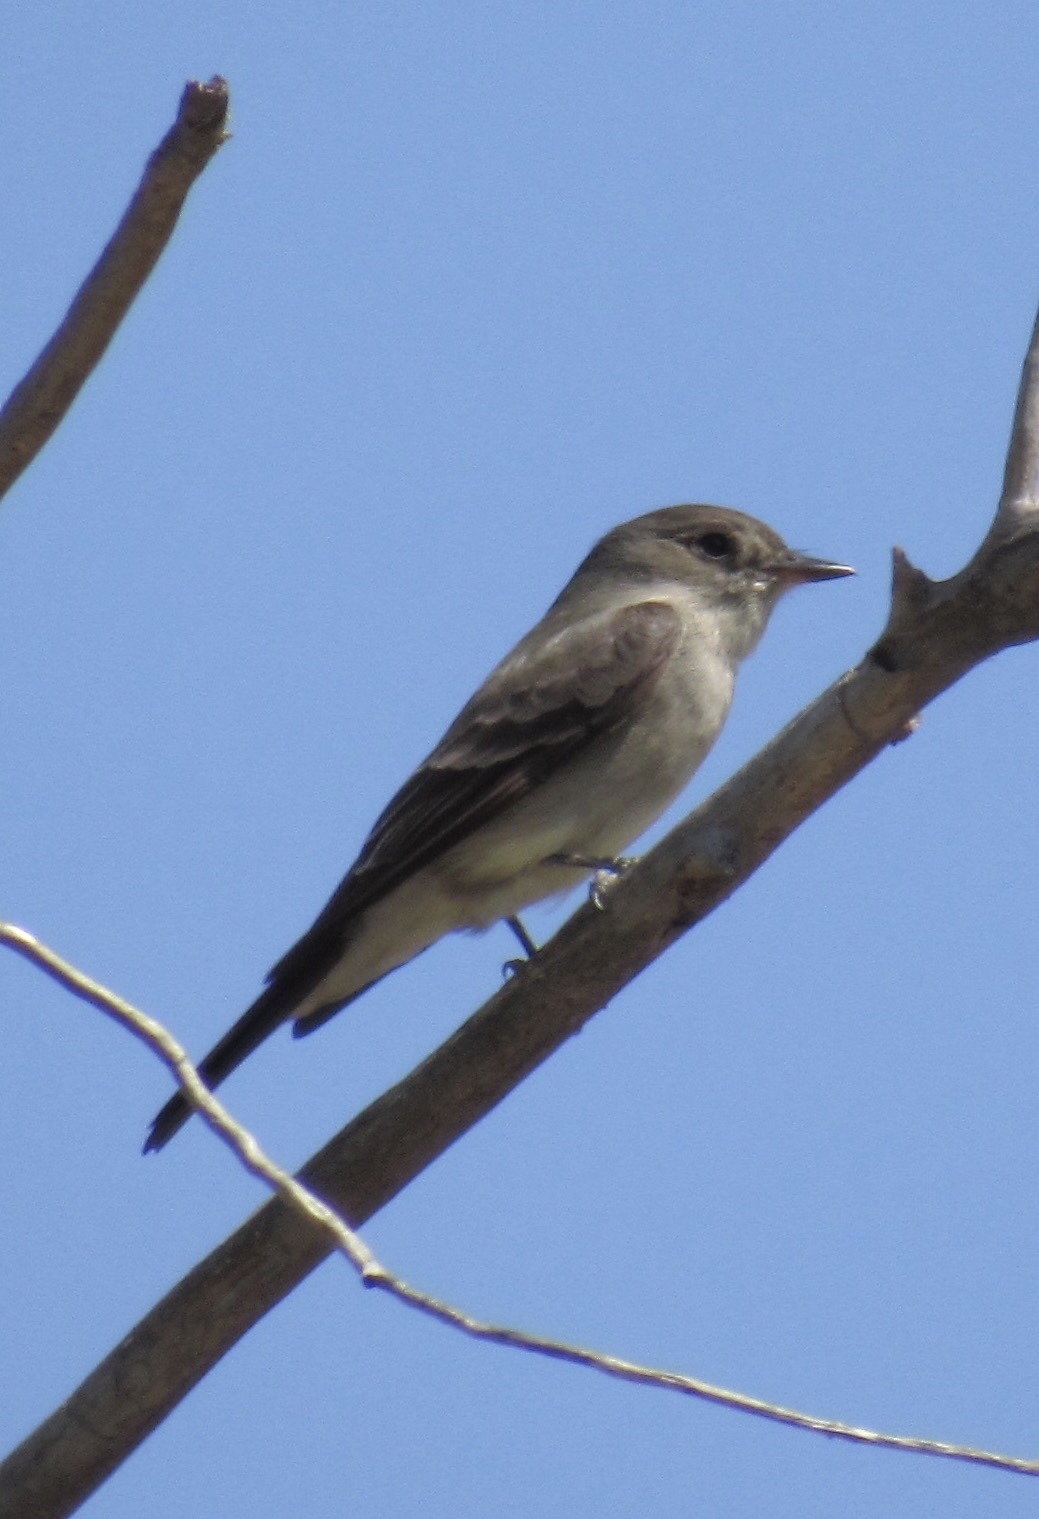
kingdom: Animalia
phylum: Chordata
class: Aves
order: Passeriformes
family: Tyrannidae
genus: Contopus
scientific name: Contopus sordidulus
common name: Western wood-pewee
